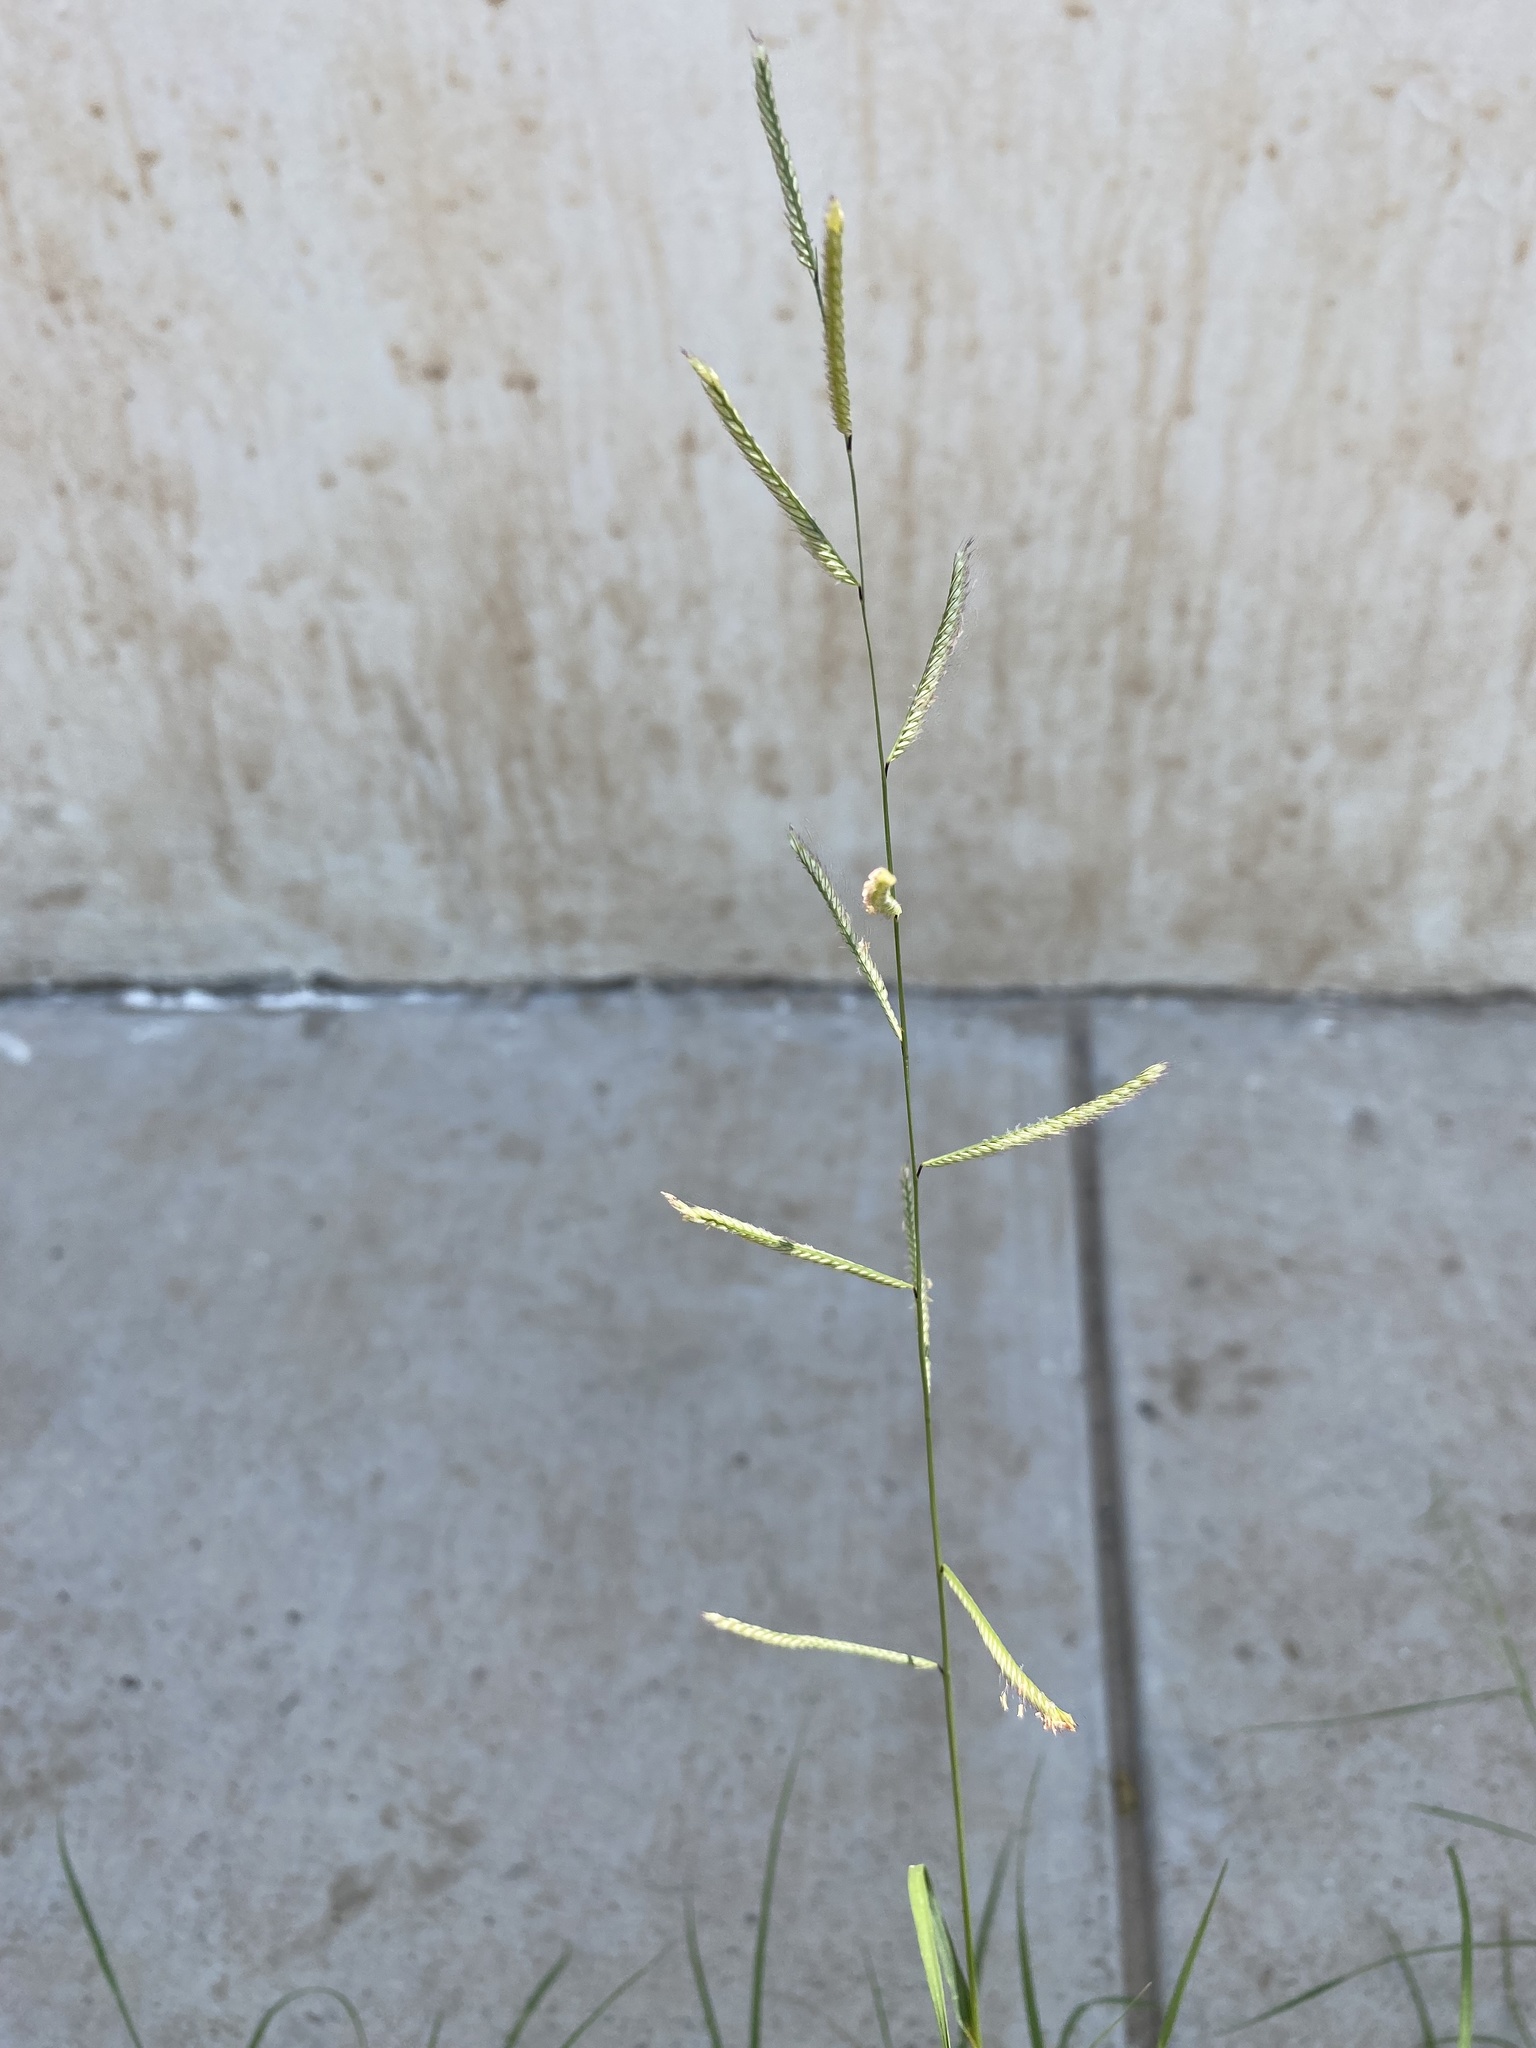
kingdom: Plantae
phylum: Tracheophyta
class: Liliopsida
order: Poales
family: Poaceae
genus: Bouteloua
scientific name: Bouteloua barbata
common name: Six-weeks grama
